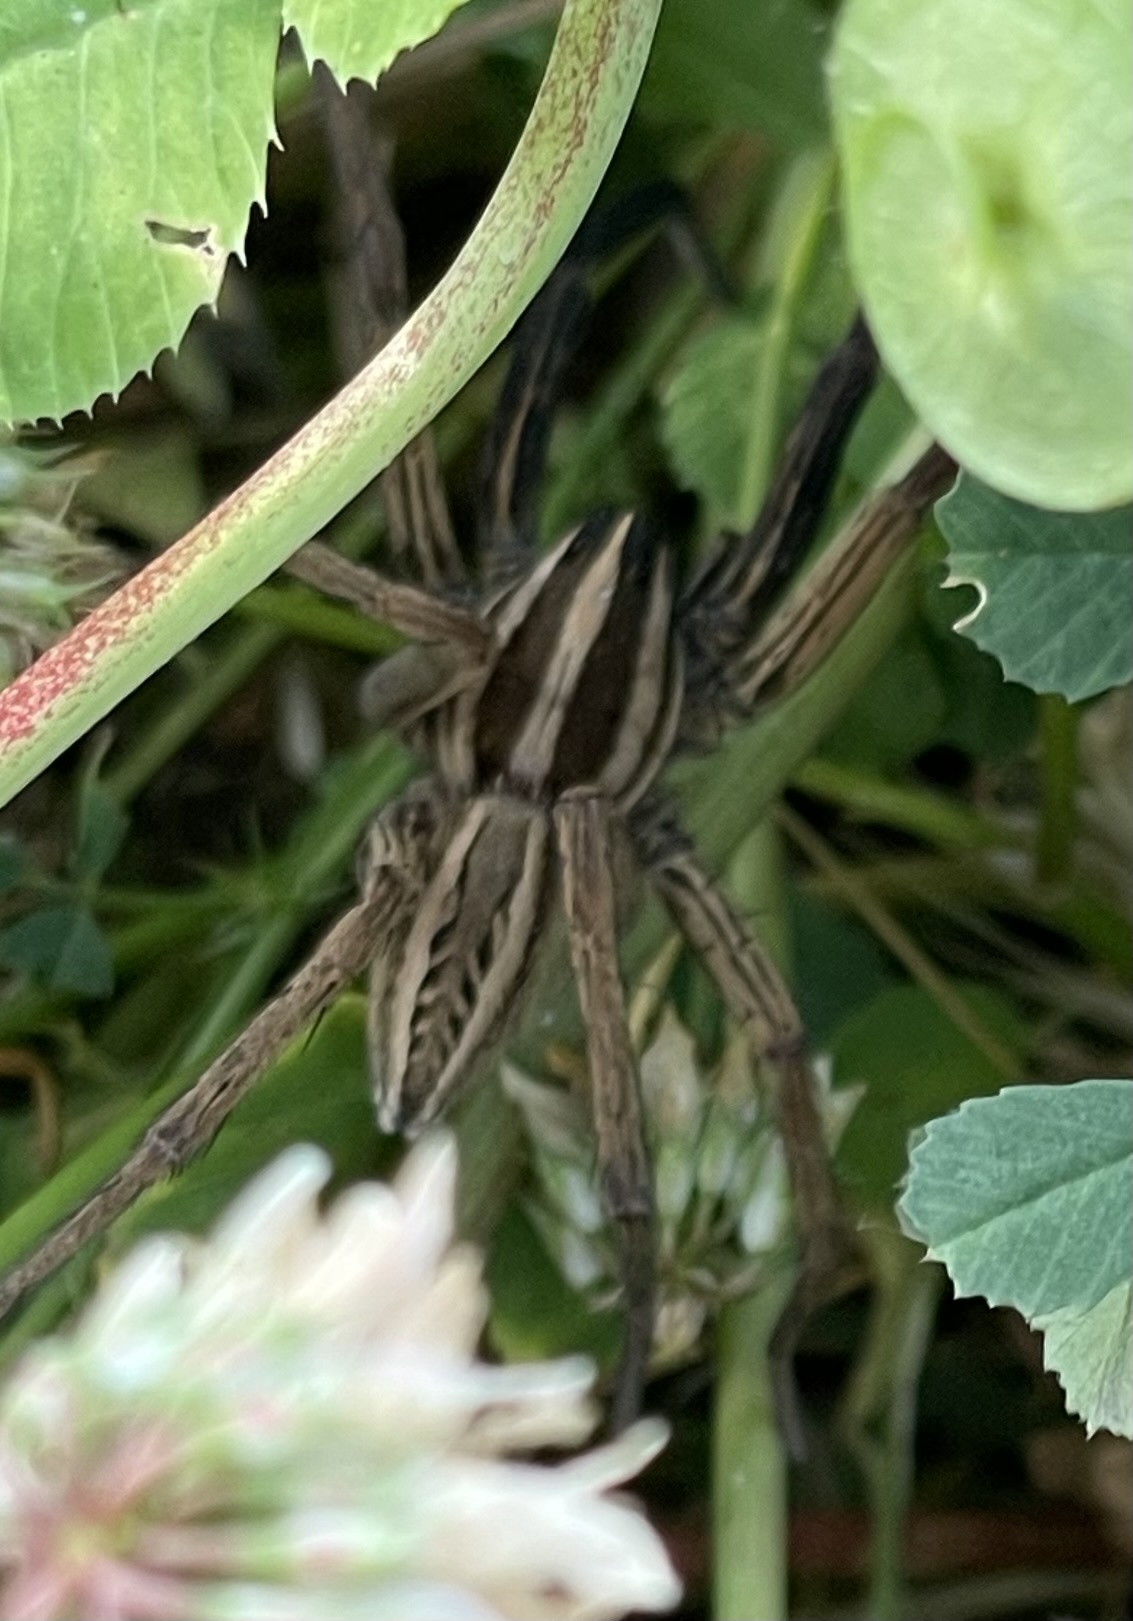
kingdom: Animalia
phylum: Arthropoda
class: Arachnida
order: Araneae
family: Lycosidae
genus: Rabidosa
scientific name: Rabidosa rabida
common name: Rabid wolf spider
